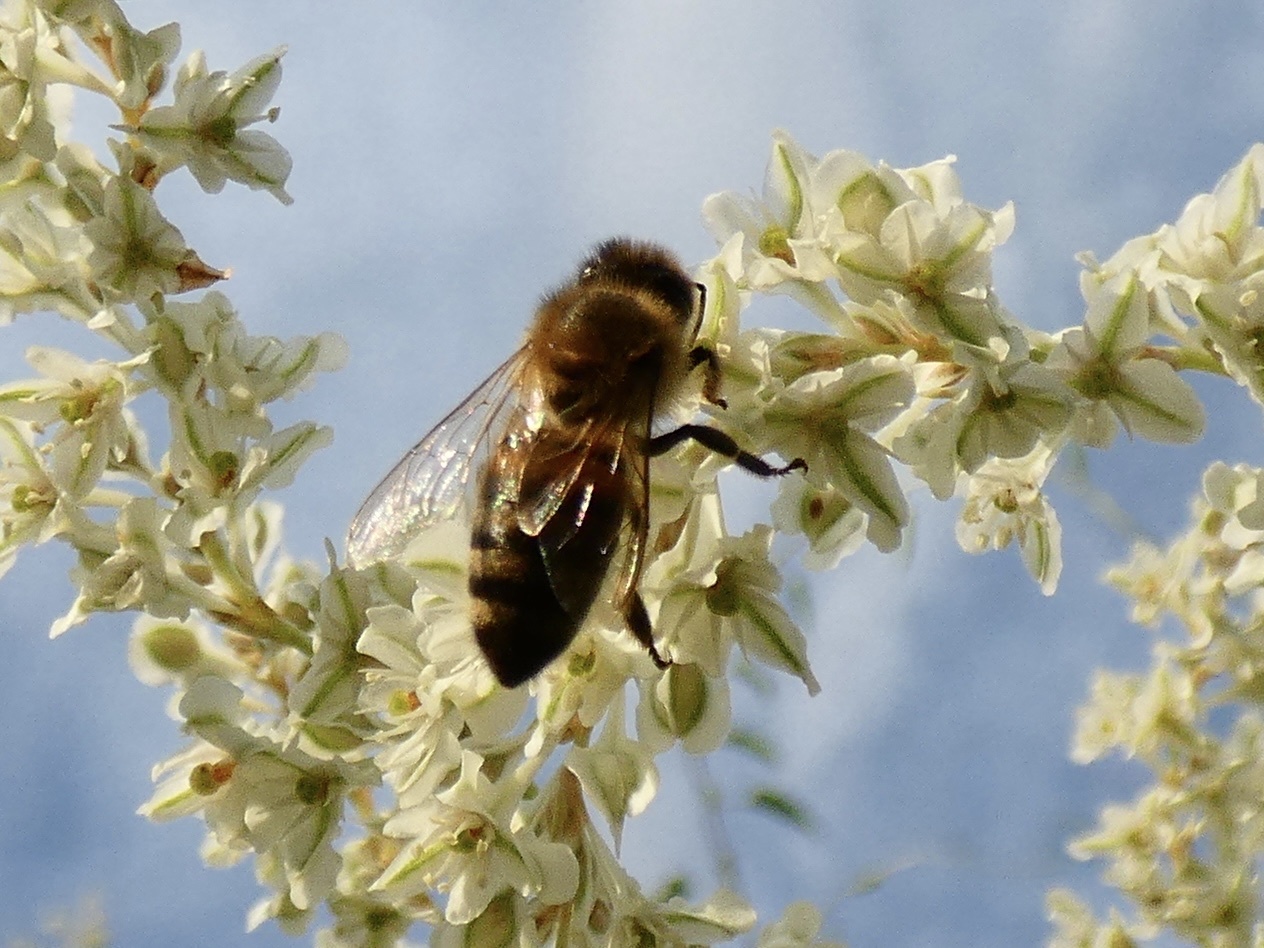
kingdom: Animalia
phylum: Arthropoda
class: Insecta
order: Hymenoptera
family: Apidae
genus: Apis
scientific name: Apis mellifera
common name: Honey bee
